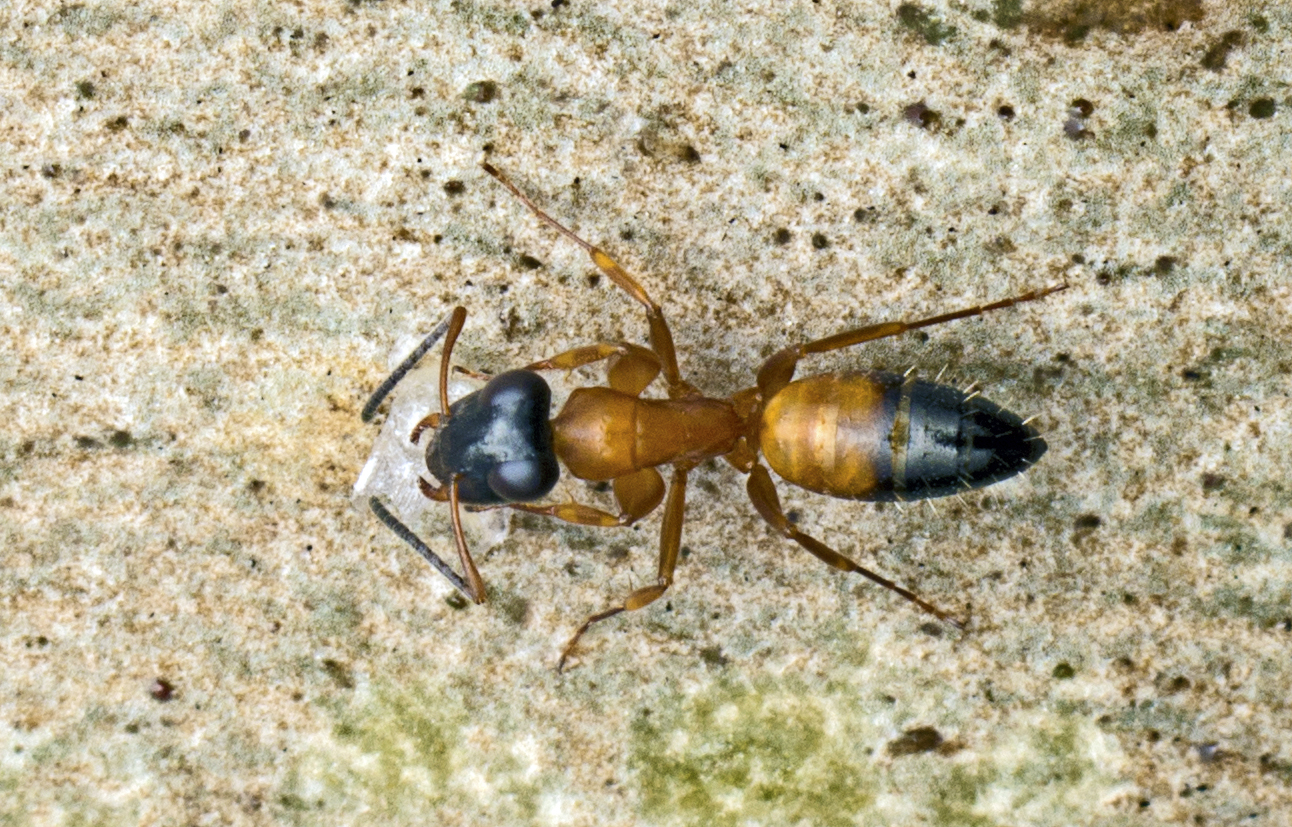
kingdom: Animalia
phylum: Arthropoda
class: Insecta
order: Hymenoptera
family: Formicidae
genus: Opisthopsis
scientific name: Opisthopsis rufithorax
